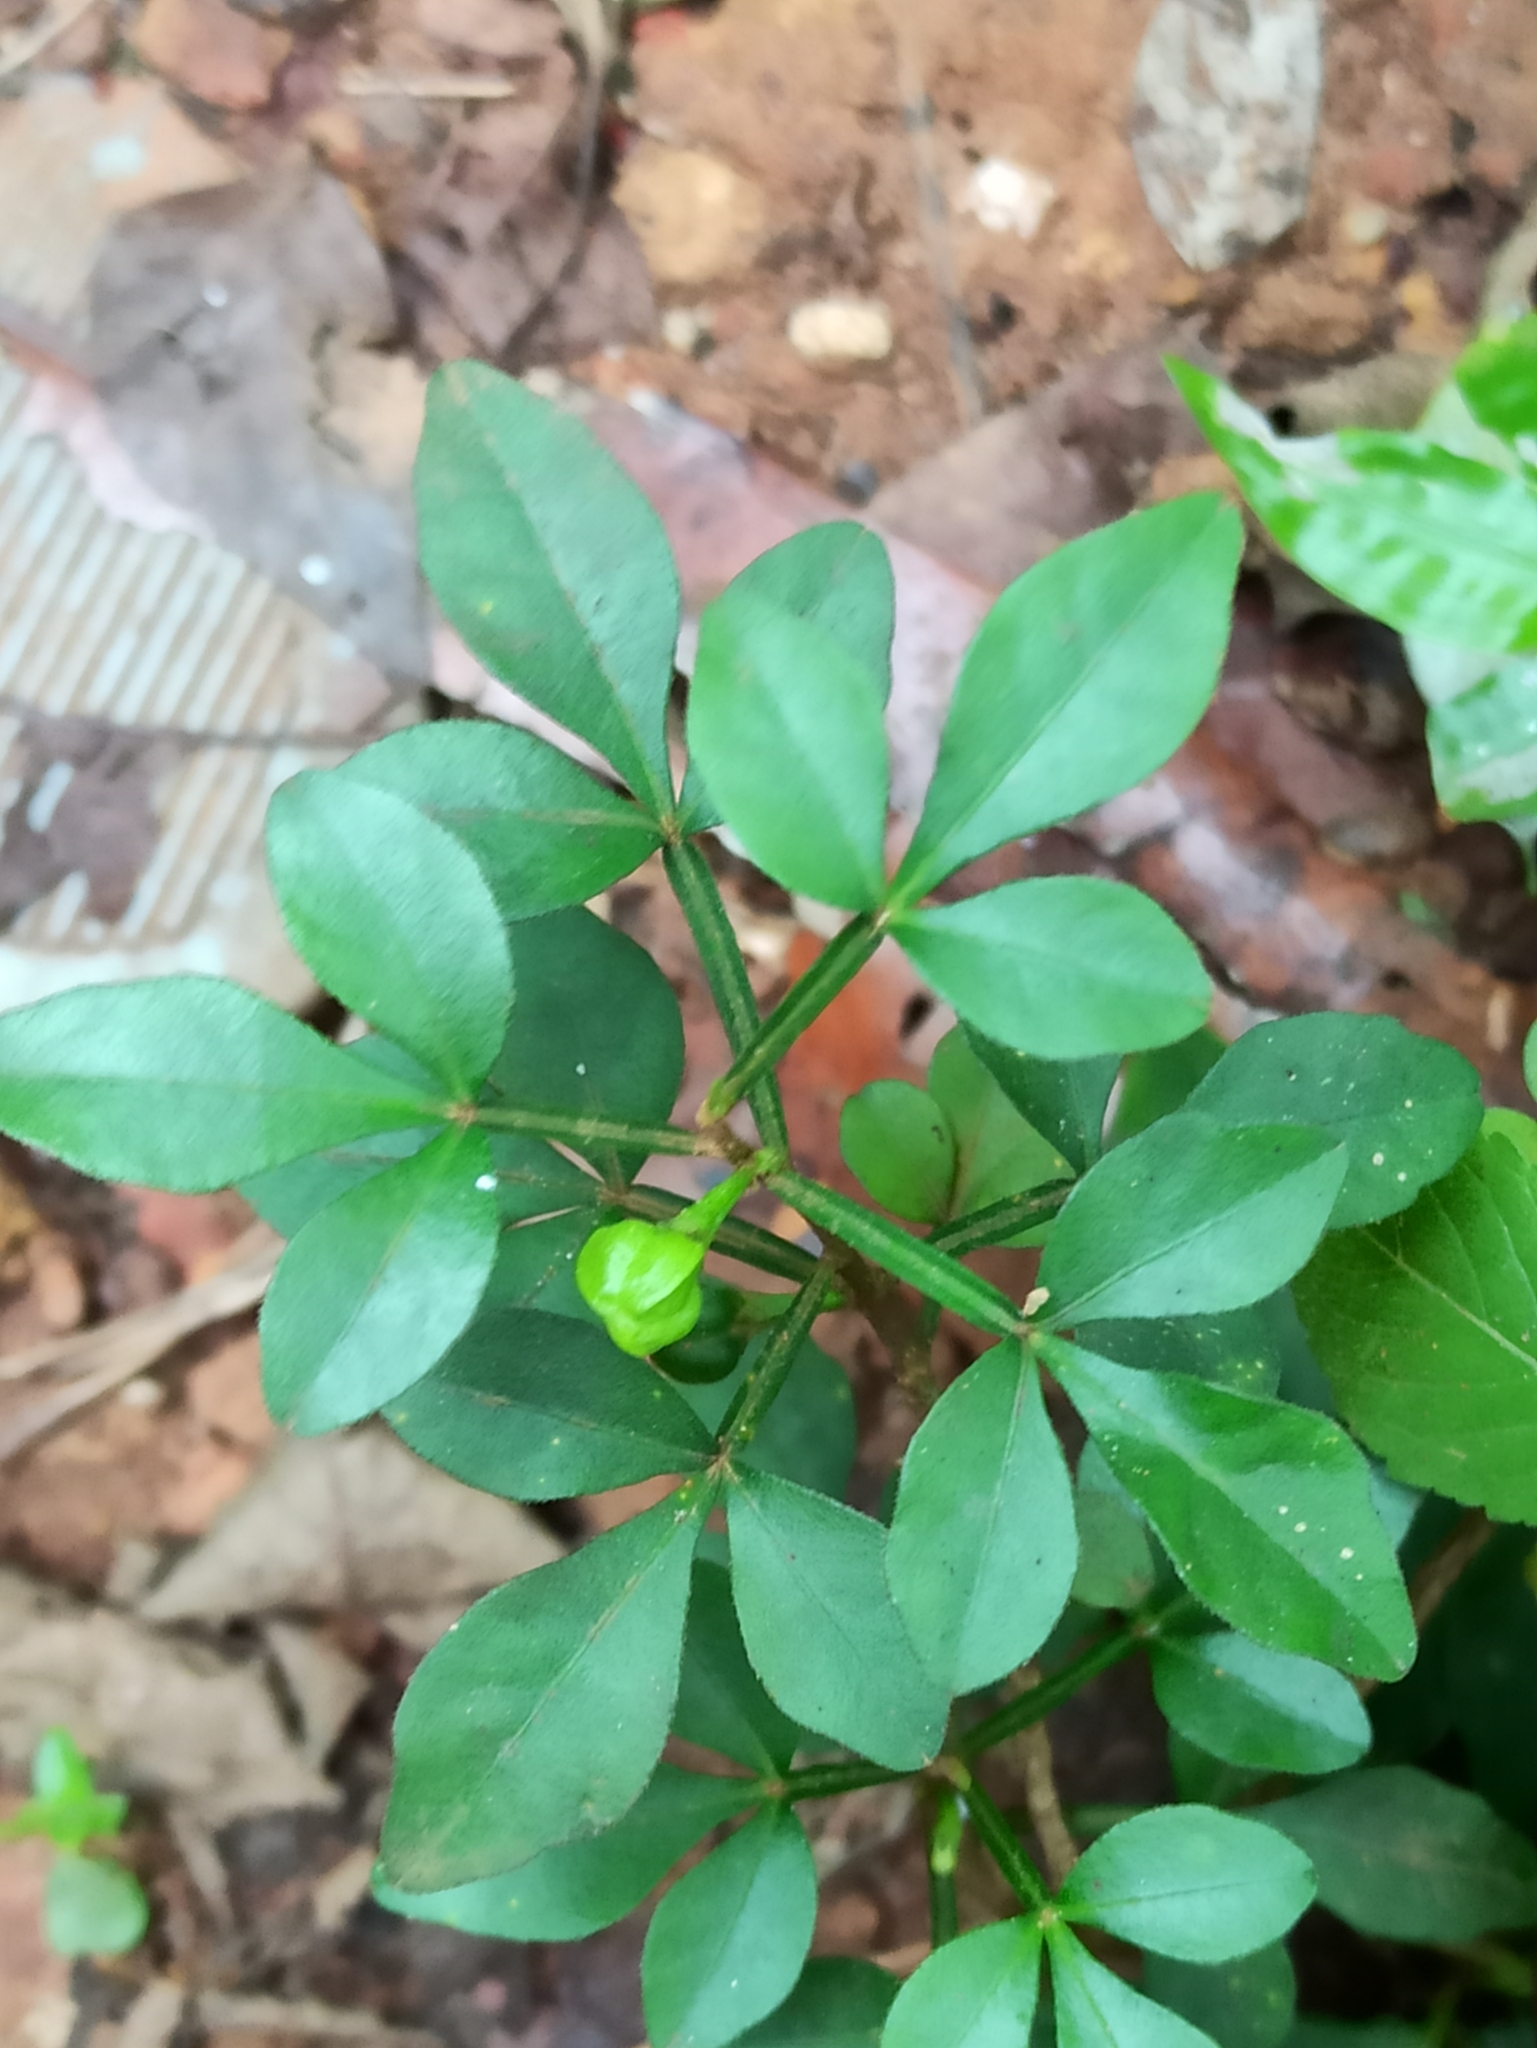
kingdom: Plantae
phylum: Tracheophyta
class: Magnoliopsida
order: Sapindales
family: Meliaceae
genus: Naregamia
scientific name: Naregamia alata
